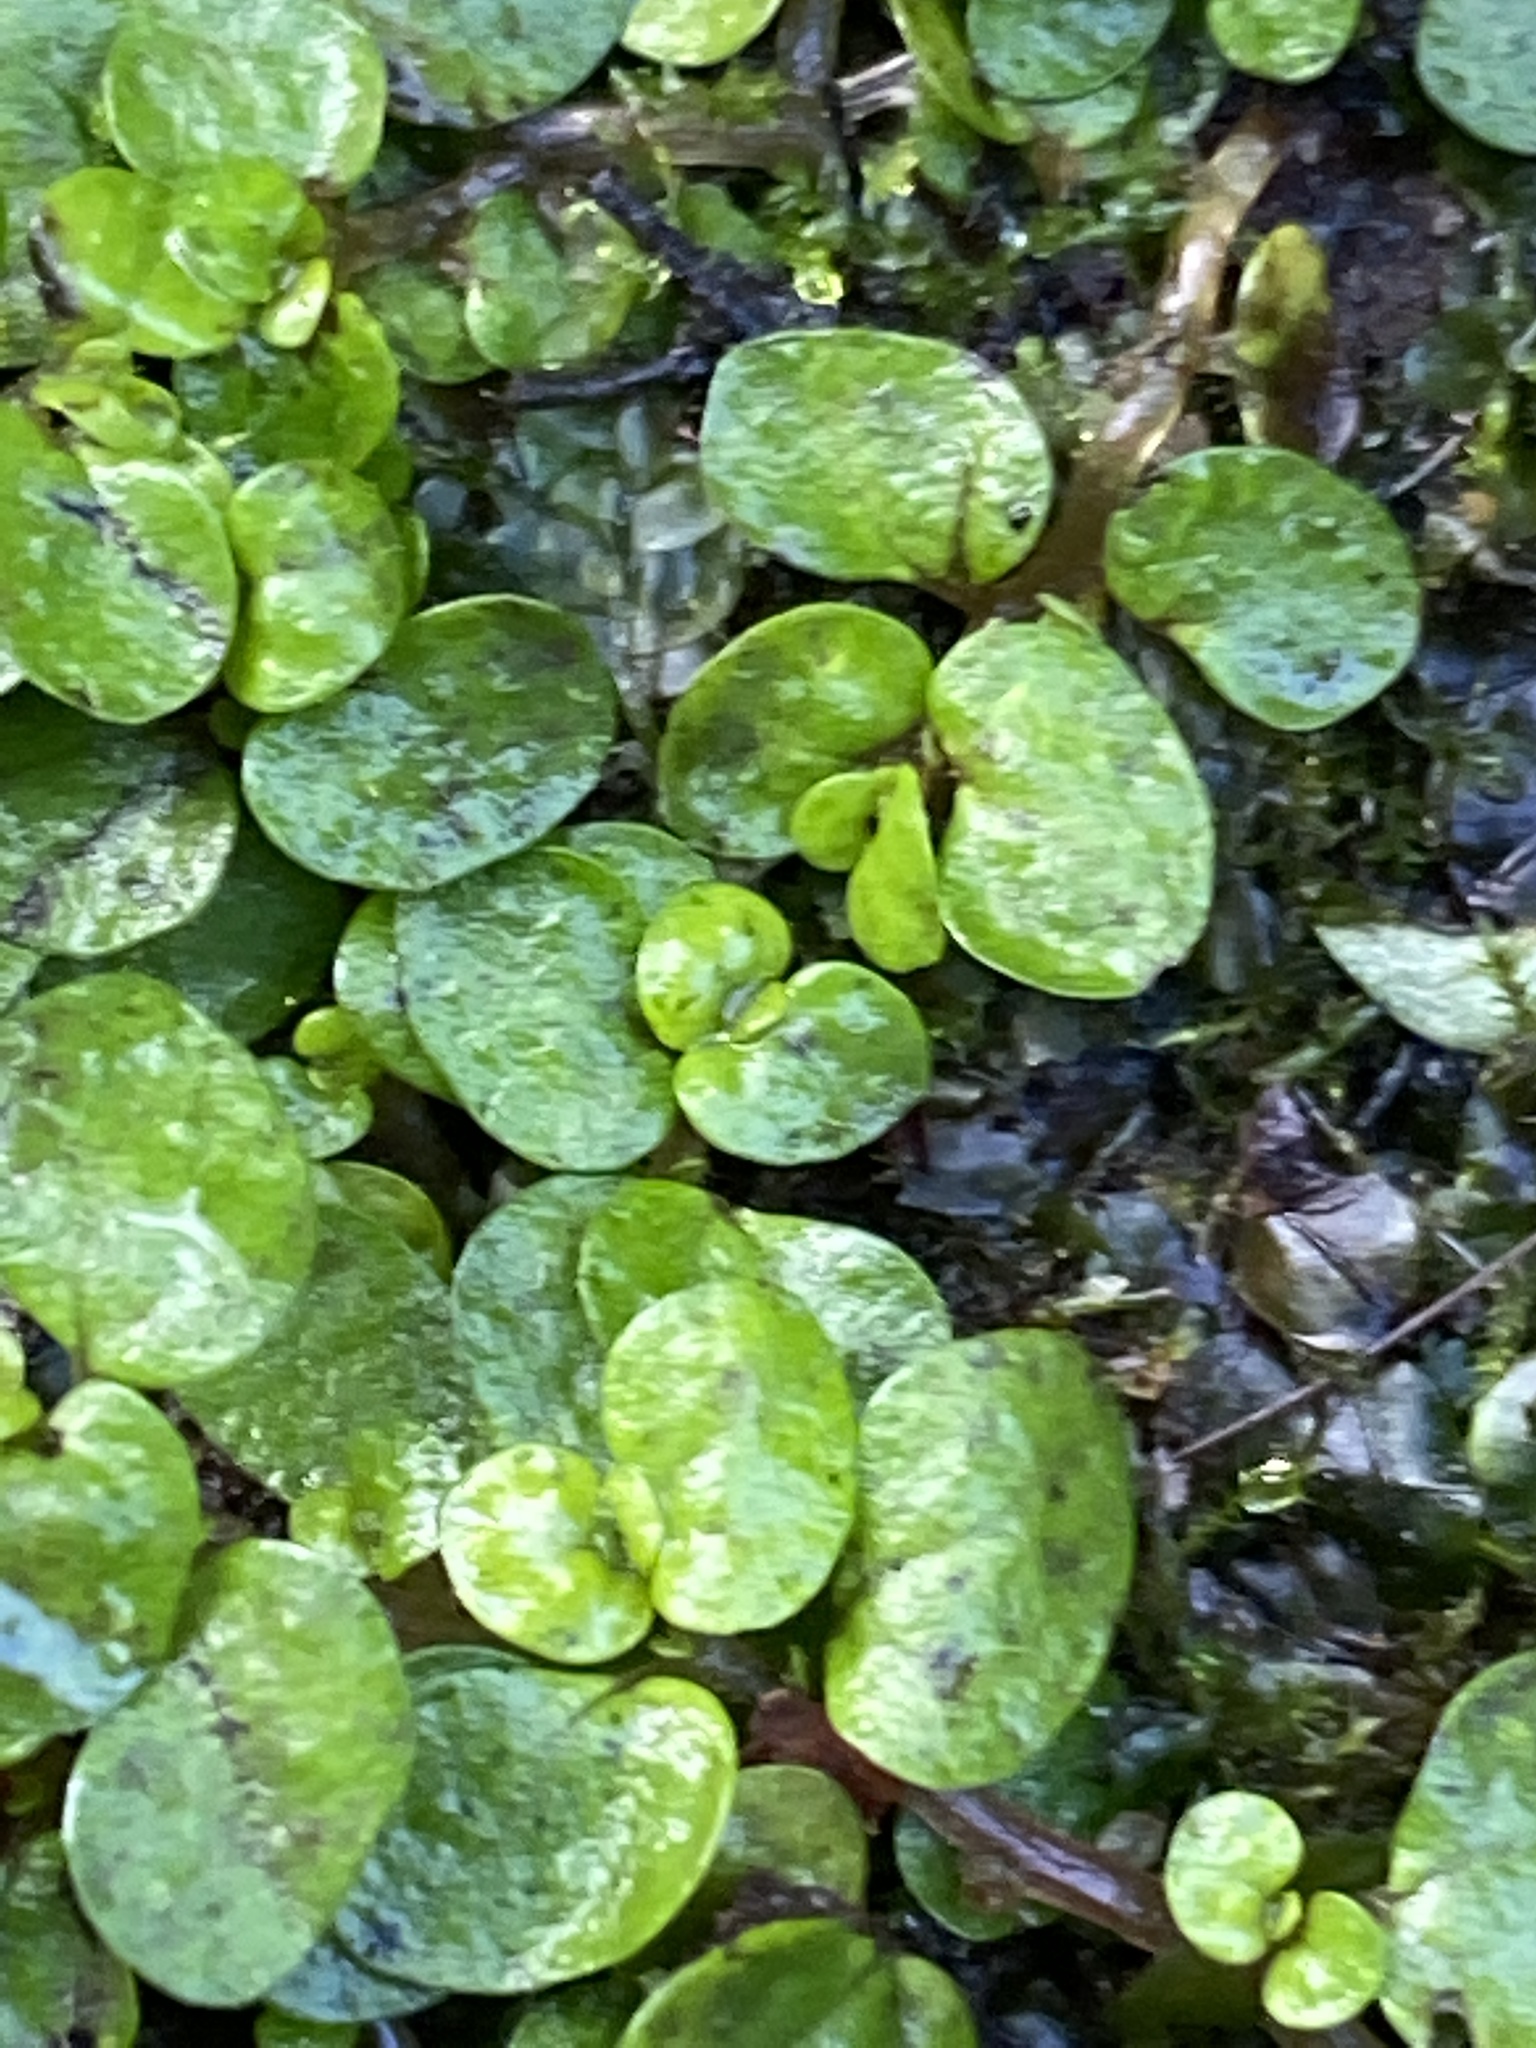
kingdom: Plantae
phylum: Tracheophyta
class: Magnoliopsida
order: Rosales
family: Urticaceae
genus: Soleirolia
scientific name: Soleirolia soleirolii
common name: Mind-your-own-business
